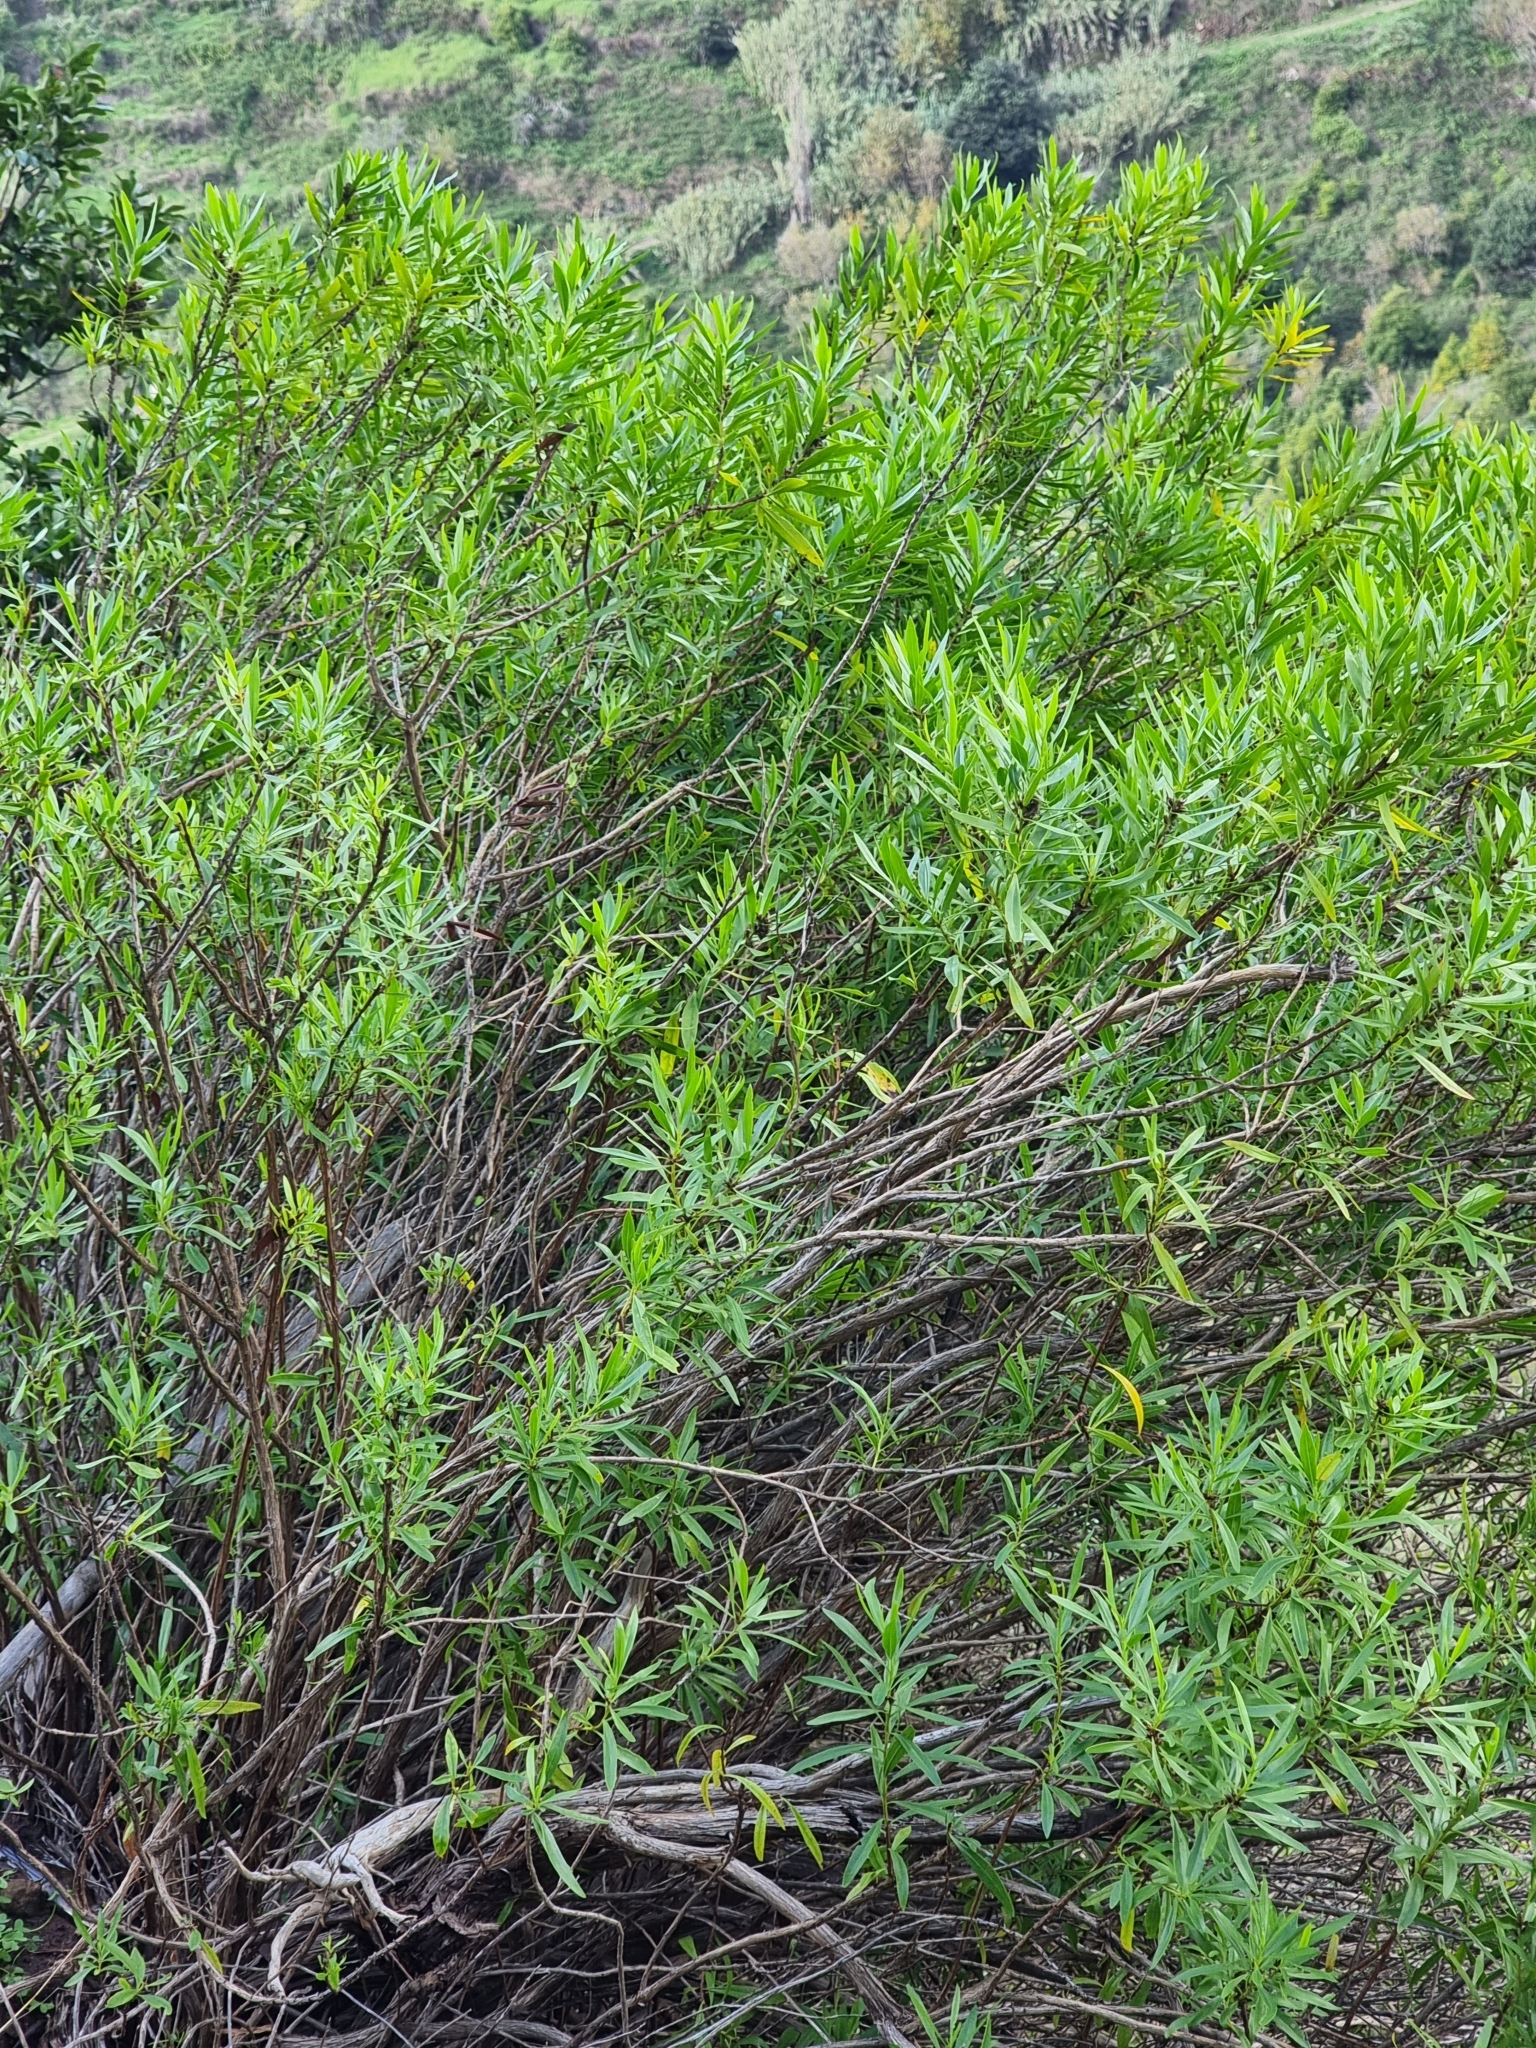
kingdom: Plantae
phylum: Tracheophyta
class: Magnoliopsida
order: Lamiales
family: Plantaginaceae
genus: Globularia
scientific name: Globularia salicina
